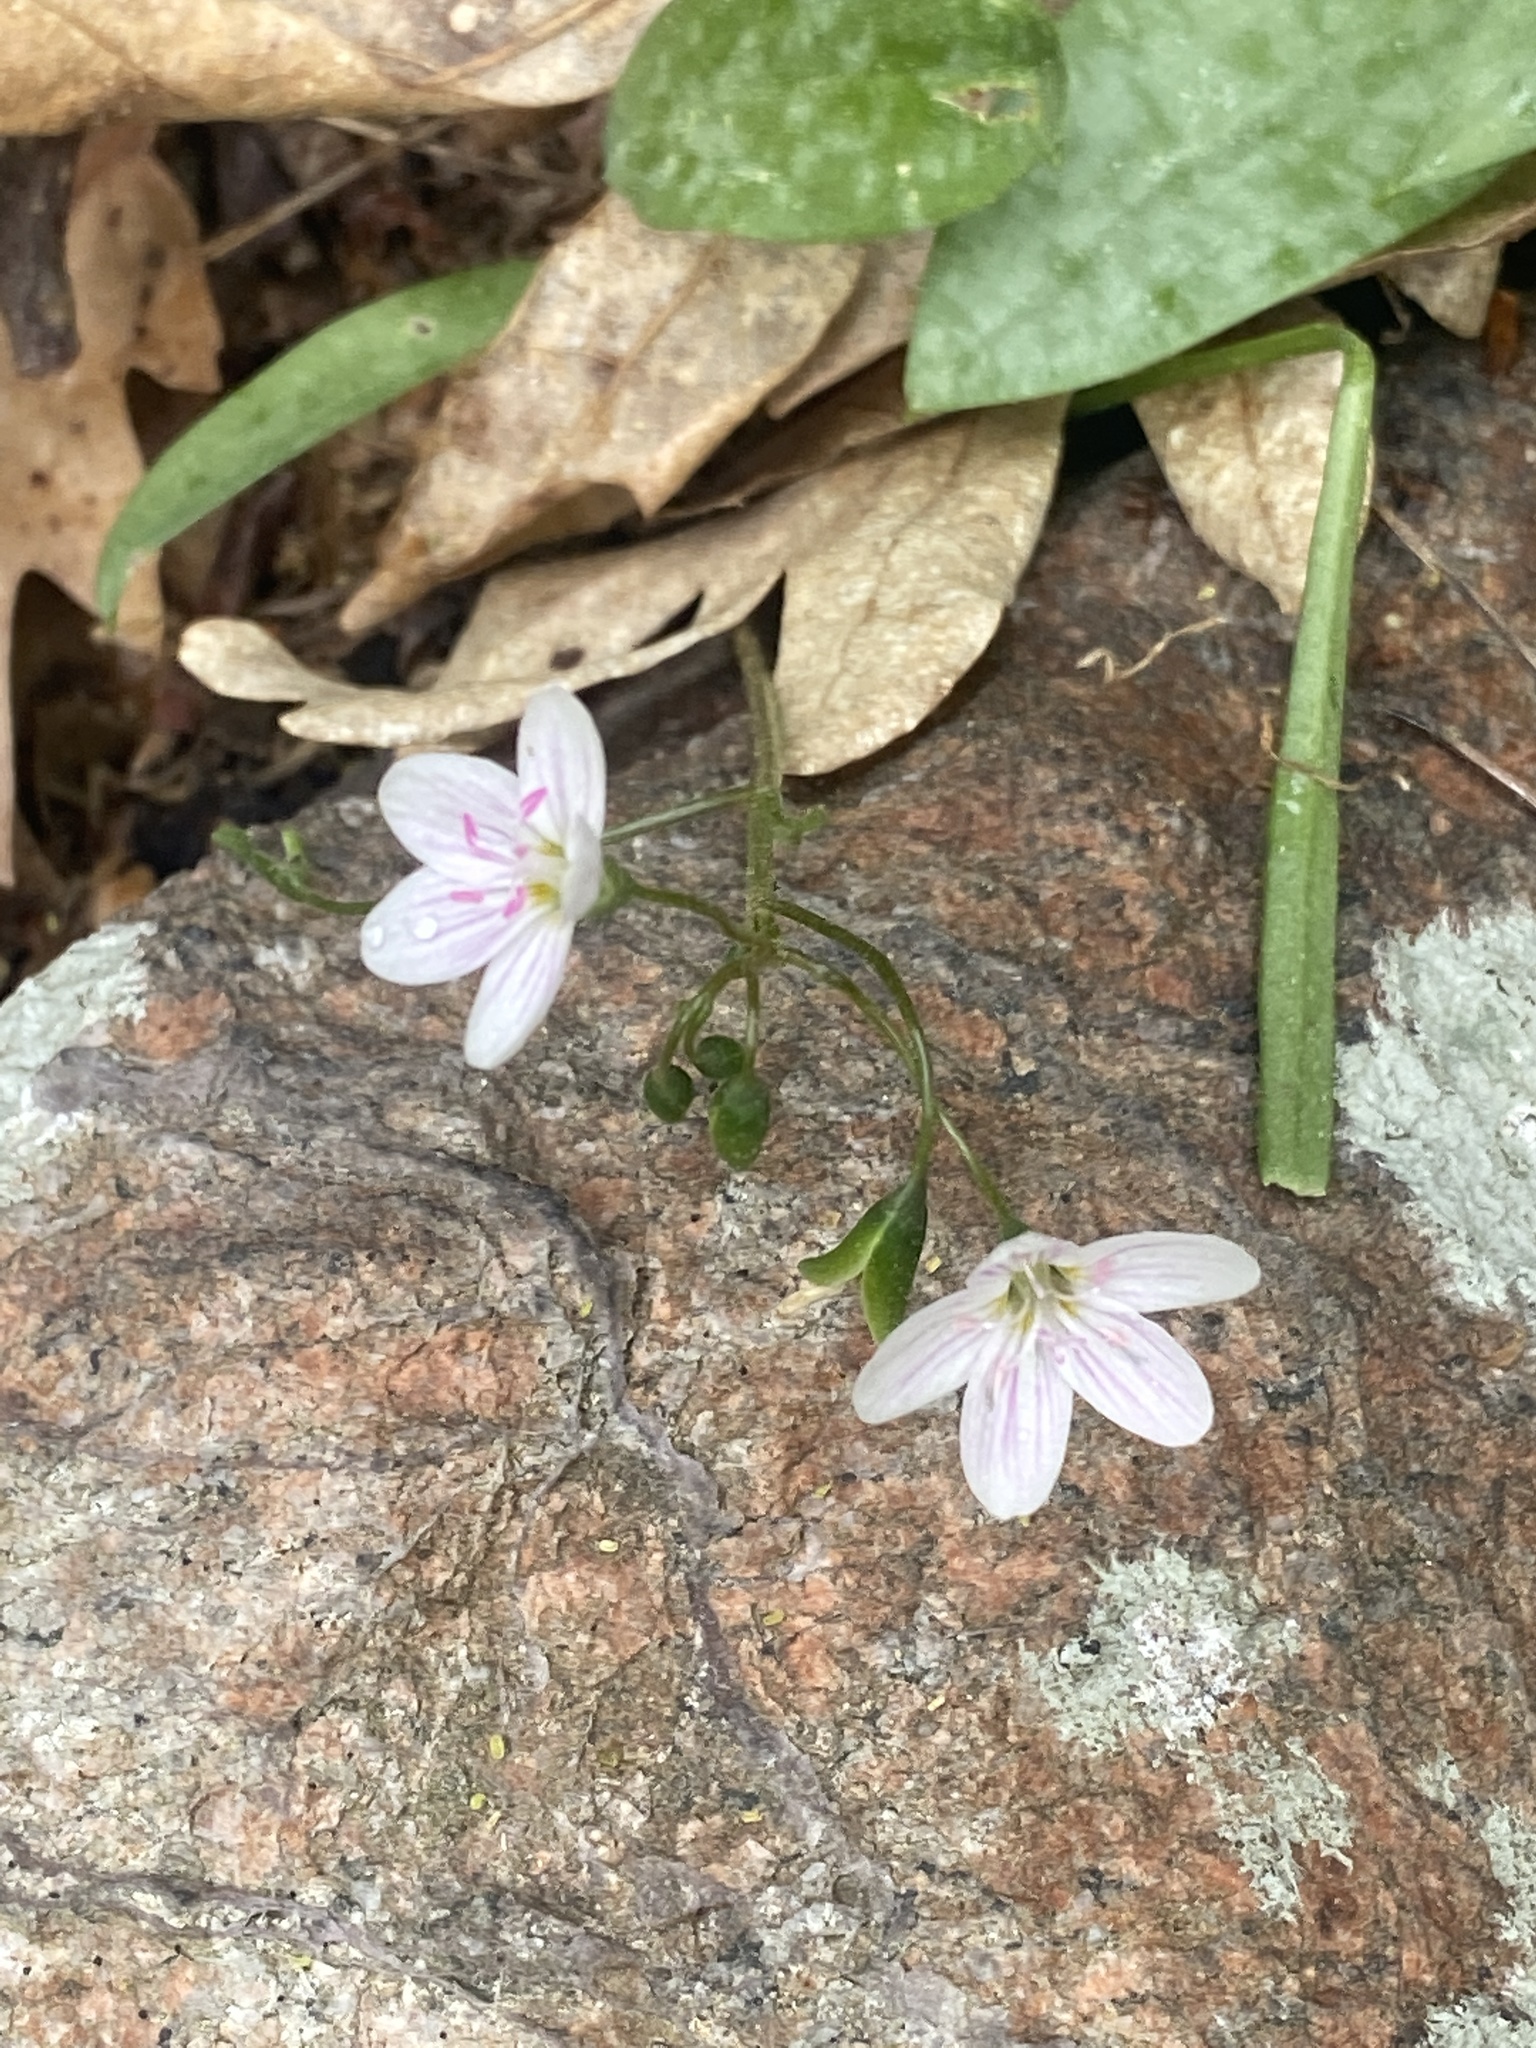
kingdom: Plantae
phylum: Tracheophyta
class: Magnoliopsida
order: Caryophyllales
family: Montiaceae
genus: Claytonia
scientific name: Claytonia virginica
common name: Virginia springbeauty
